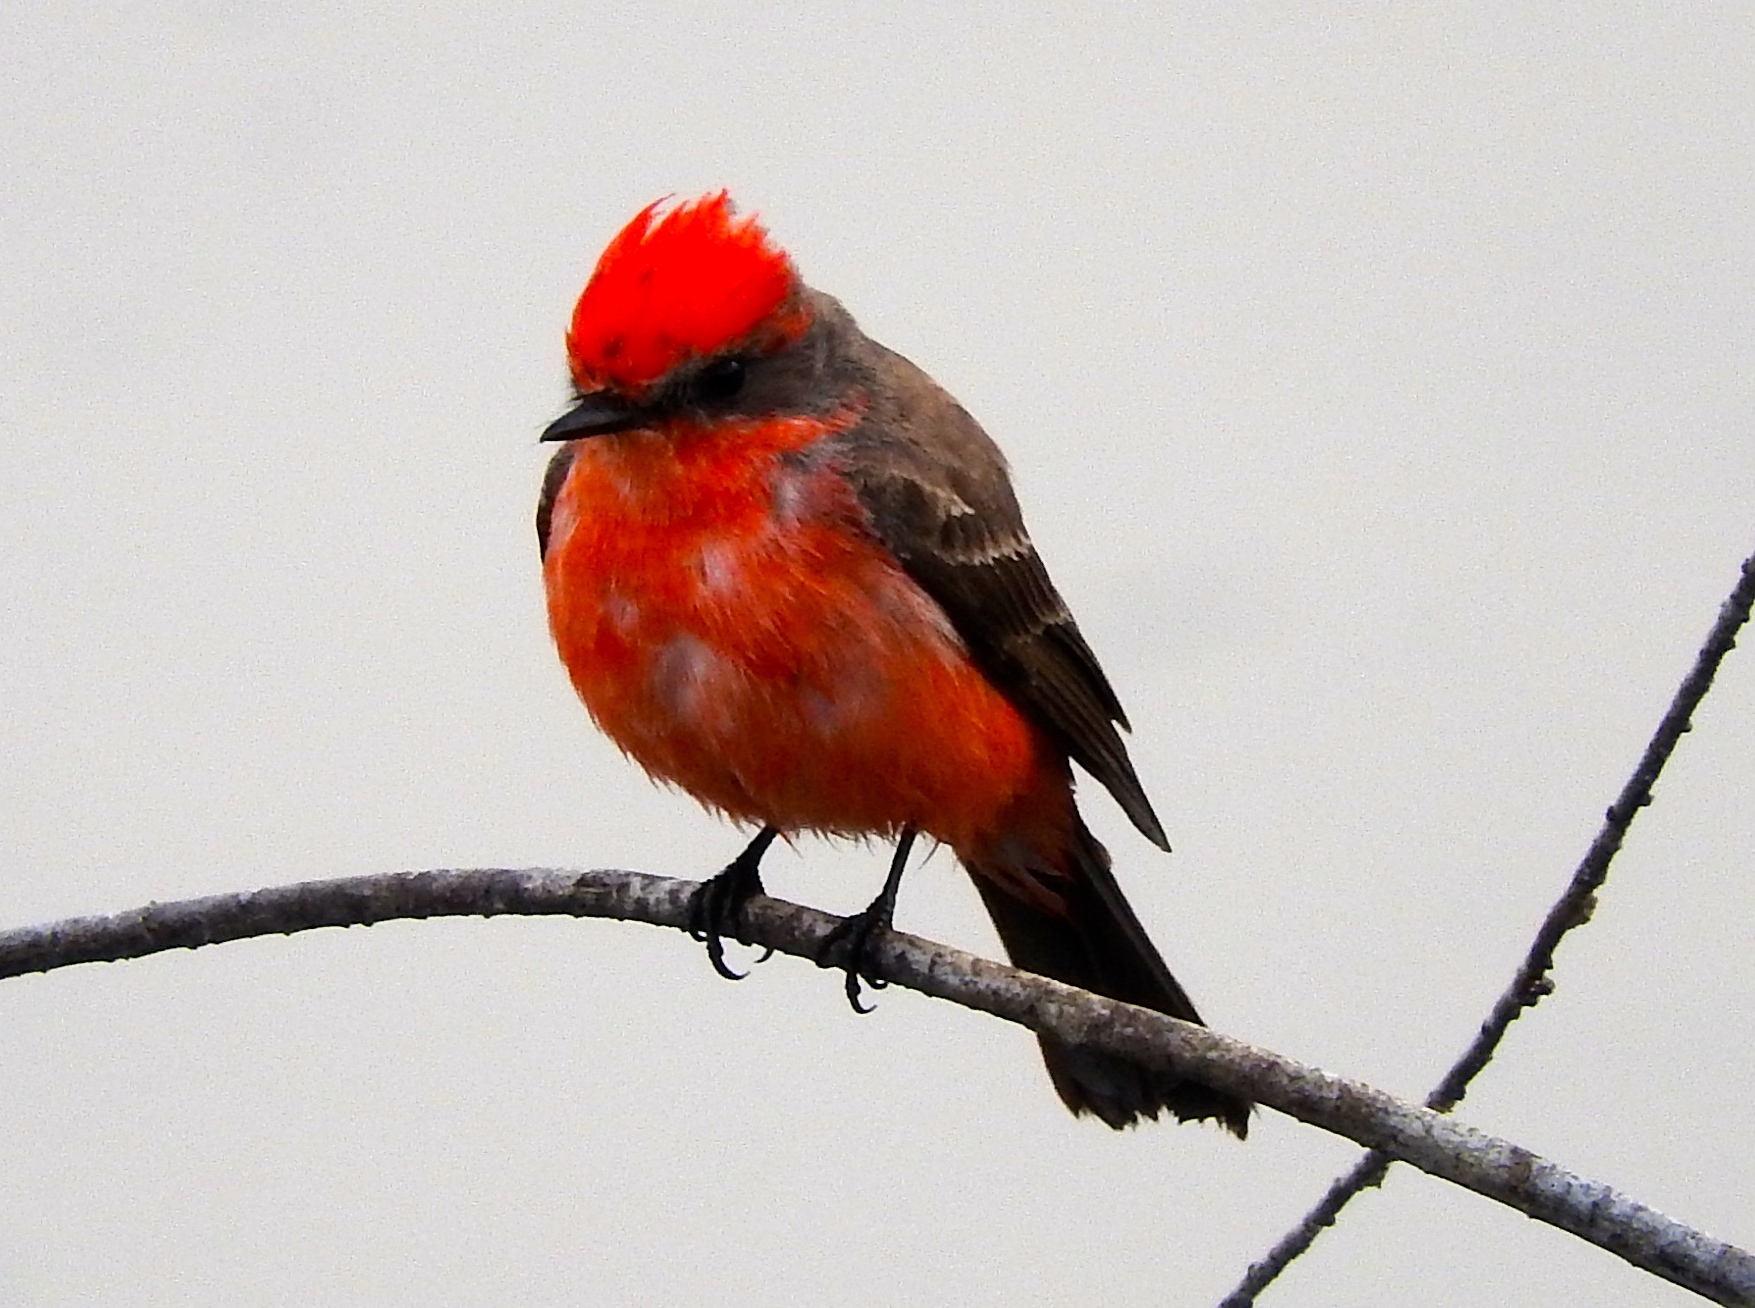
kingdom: Animalia
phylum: Chordata
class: Aves
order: Passeriformes
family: Tyrannidae
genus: Pyrocephalus
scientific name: Pyrocephalus rubinus
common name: Vermilion flycatcher
